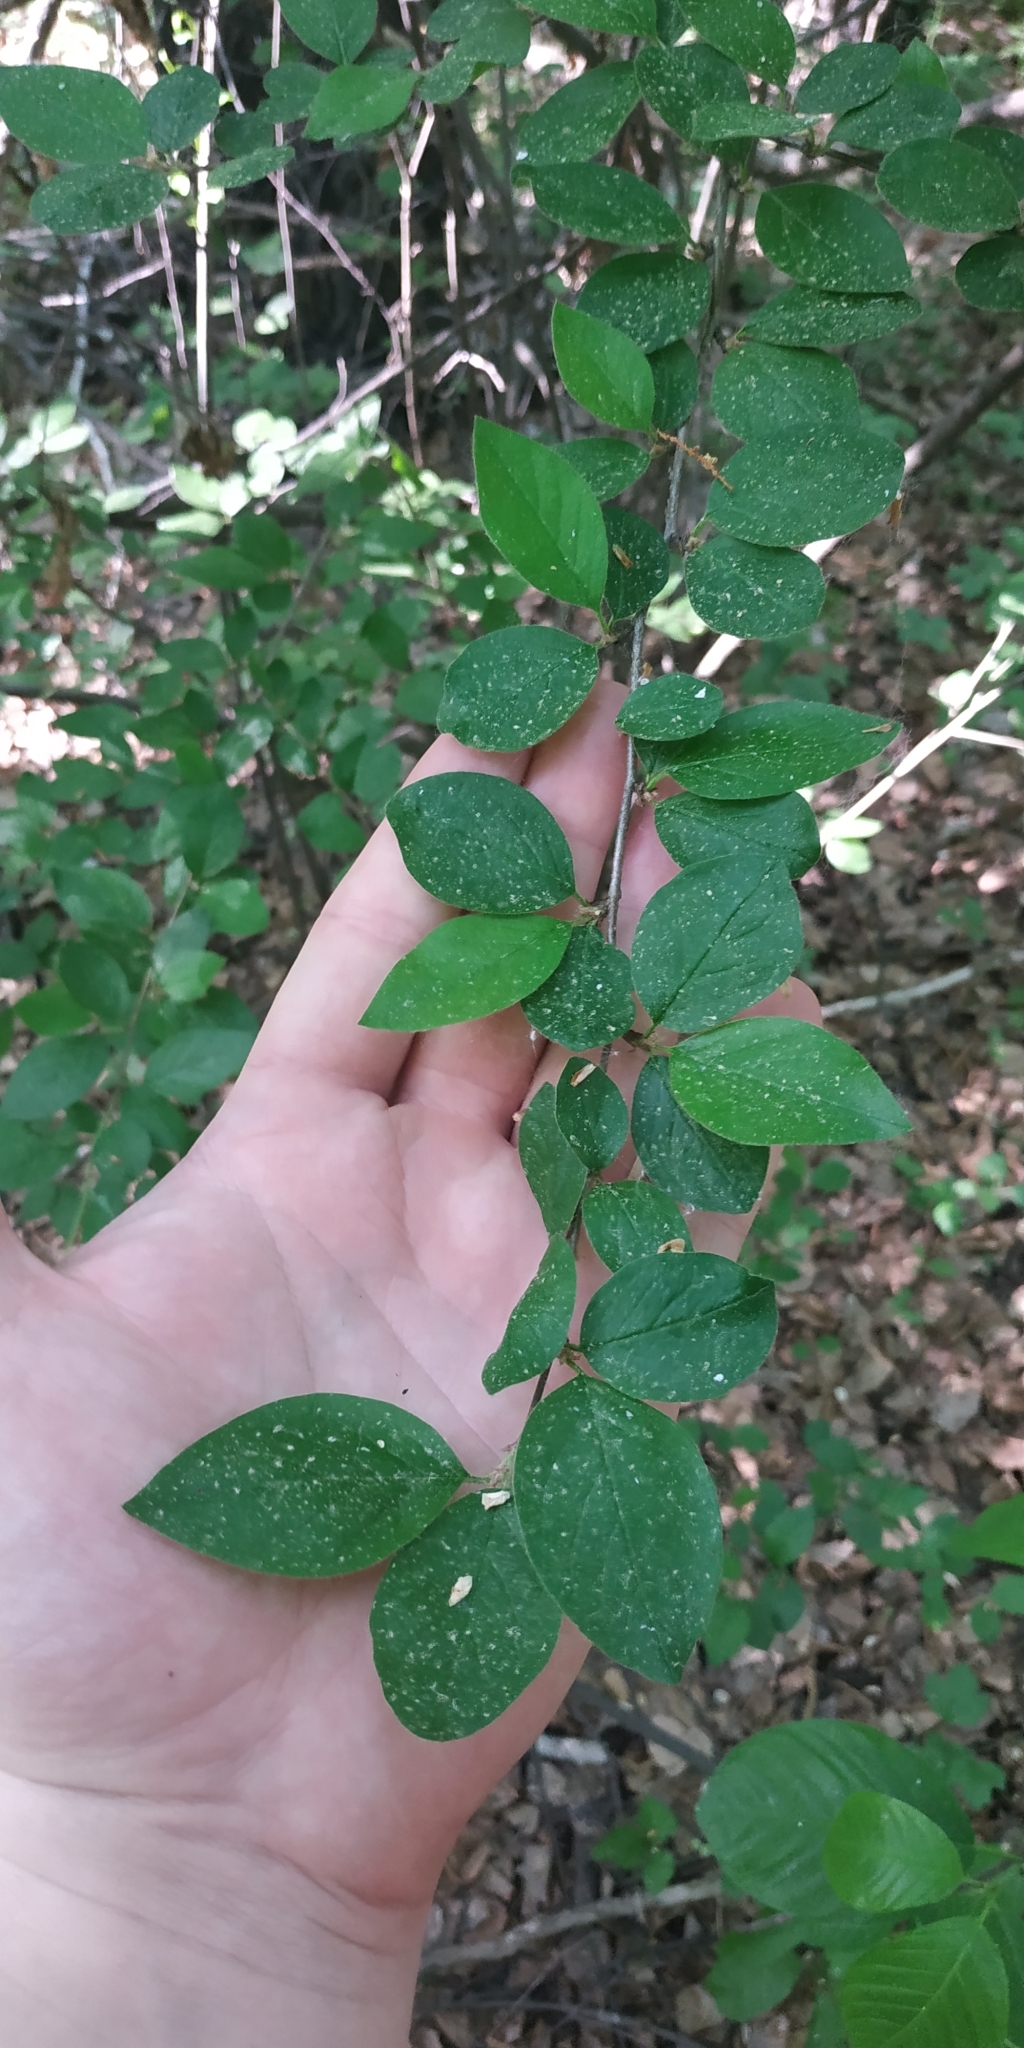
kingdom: Plantae
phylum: Tracheophyta
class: Magnoliopsida
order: Rosales
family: Rosaceae
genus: Cotoneaster
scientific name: Cotoneaster acutifolius
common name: Peking cotoneaster
